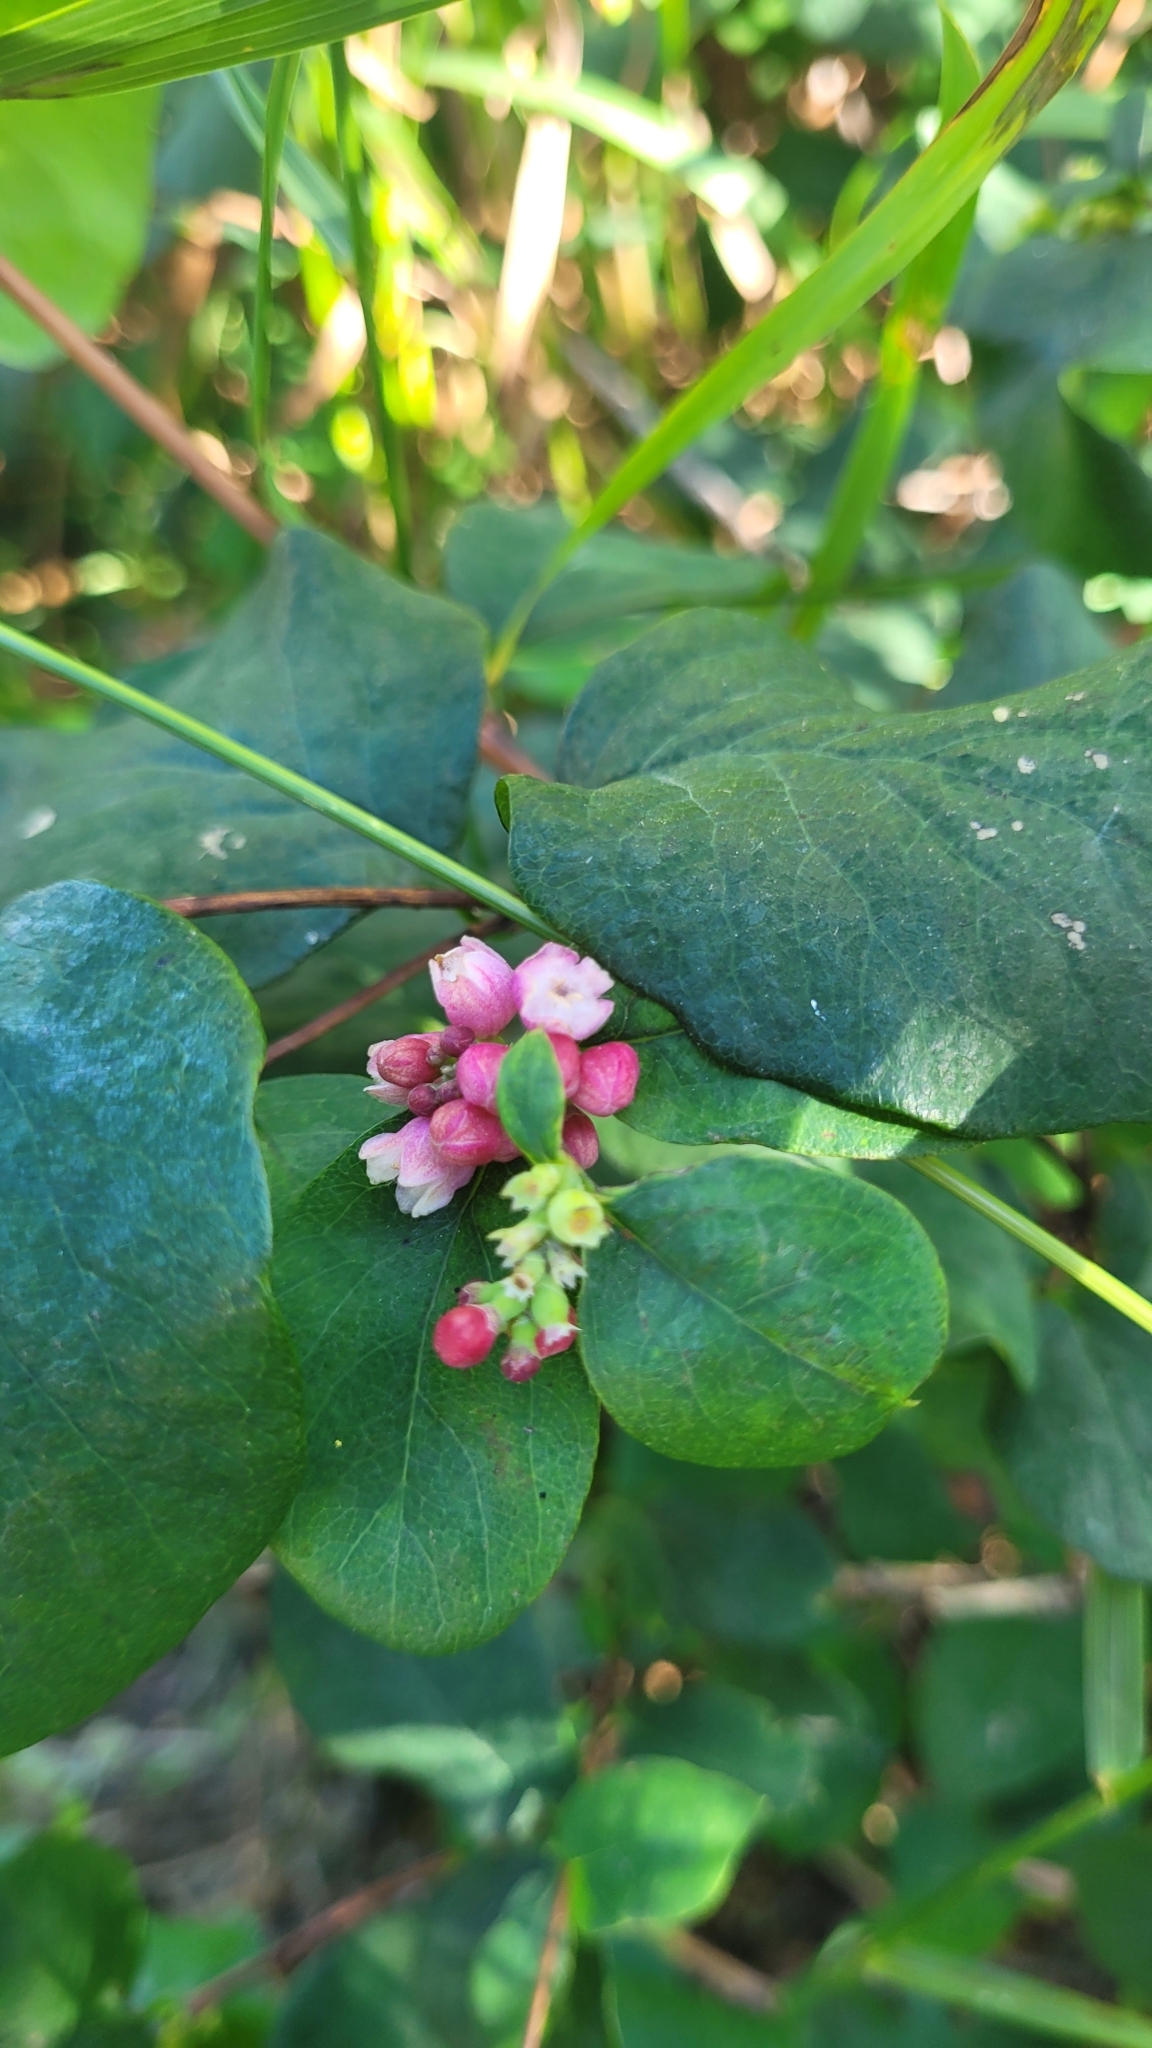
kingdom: Plantae
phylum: Tracheophyta
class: Magnoliopsida
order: Dipsacales
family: Caprifoliaceae
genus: Symphoricarpos
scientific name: Symphoricarpos albus
